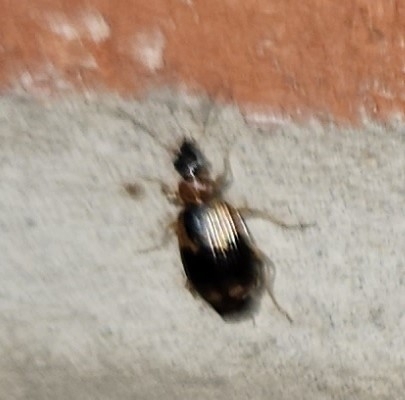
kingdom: Animalia
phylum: Arthropoda
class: Insecta
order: Coleoptera
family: Carabidae
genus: Lebia
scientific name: Lebia analis
